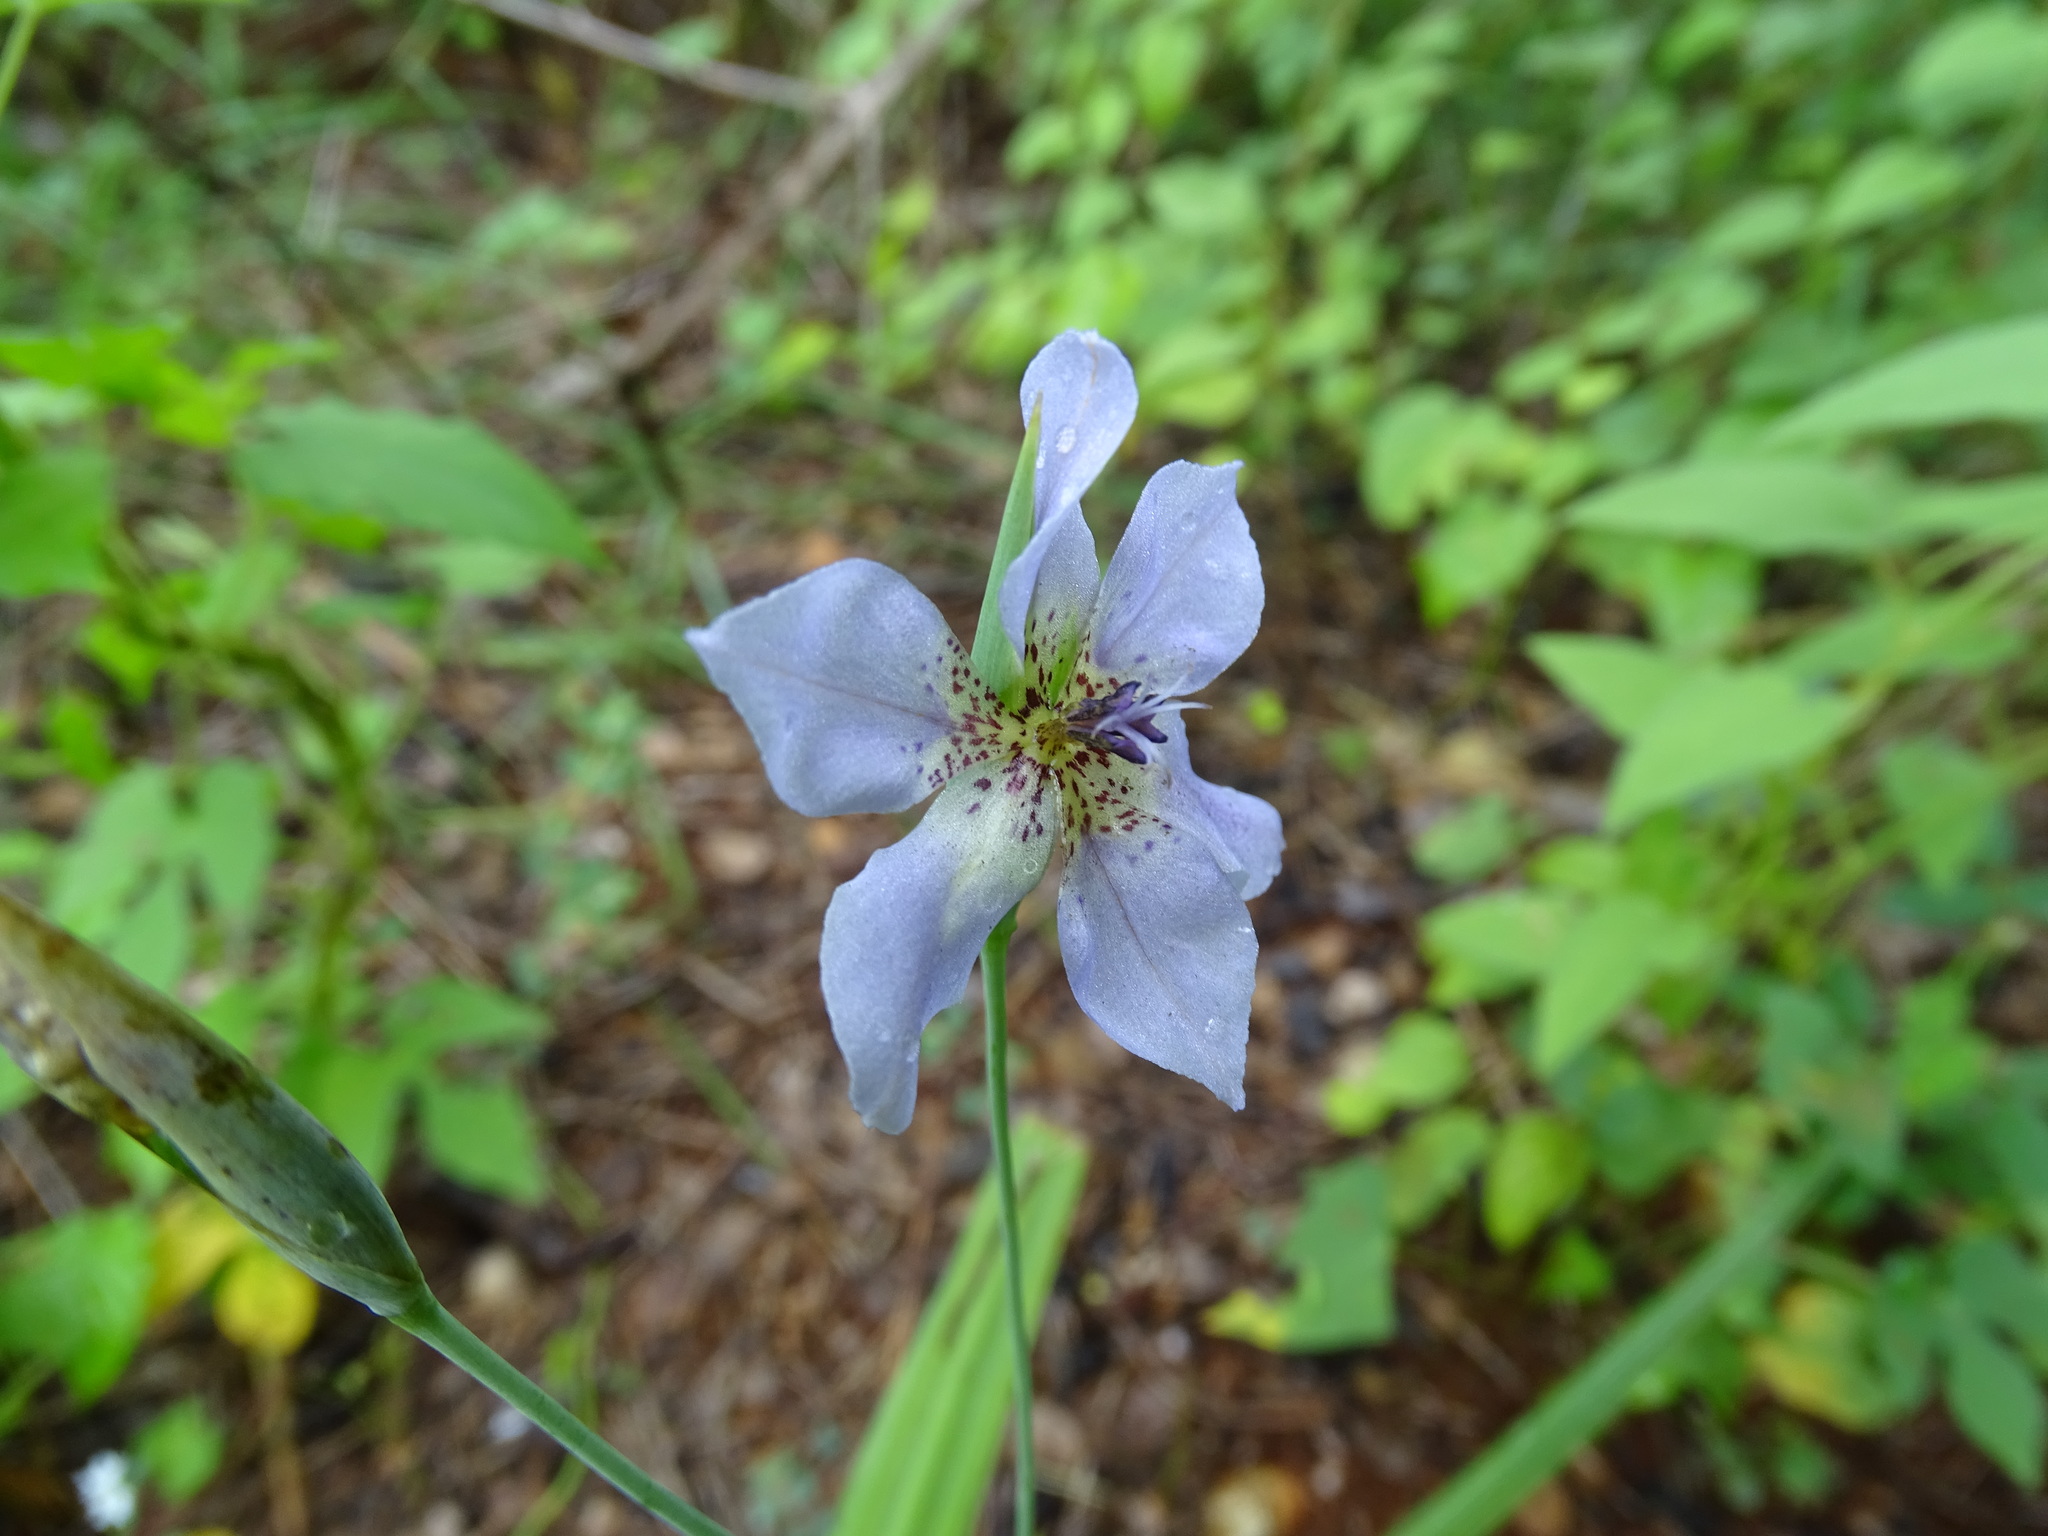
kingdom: Plantae
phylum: Tracheophyta
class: Liliopsida
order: Asparagales
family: Iridaceae
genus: Alophia
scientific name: Alophia silvestris
